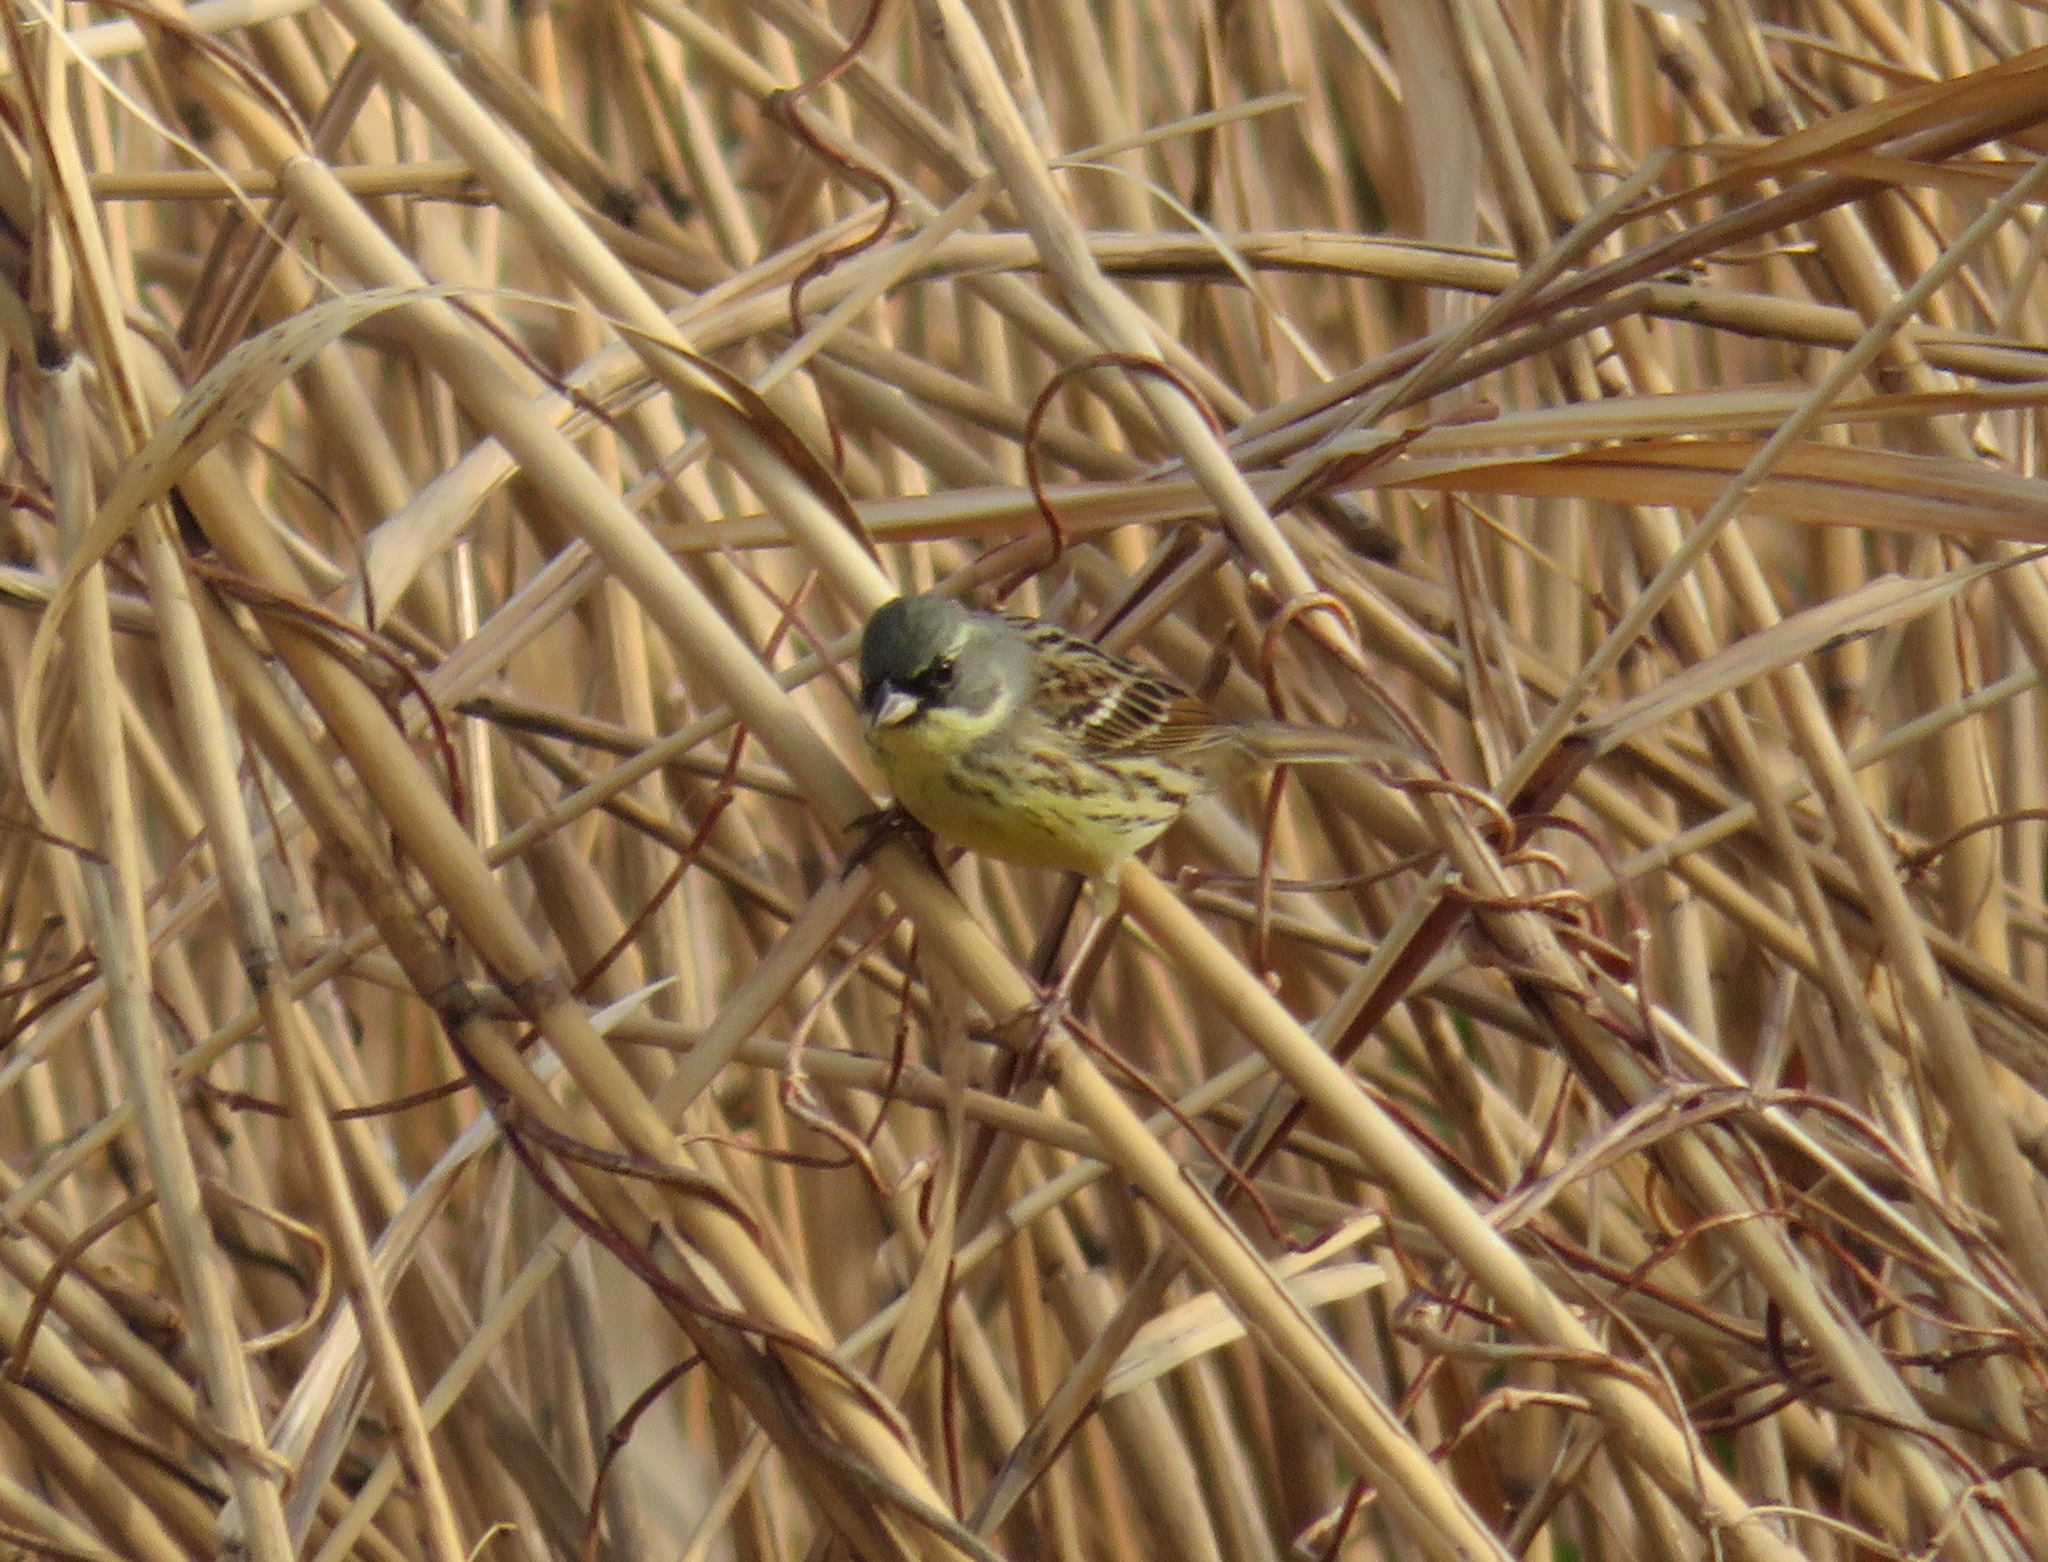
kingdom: Animalia
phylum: Chordata
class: Aves
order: Passeriformes
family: Emberizidae
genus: Emberiza
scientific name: Emberiza personata
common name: Masked bunting
